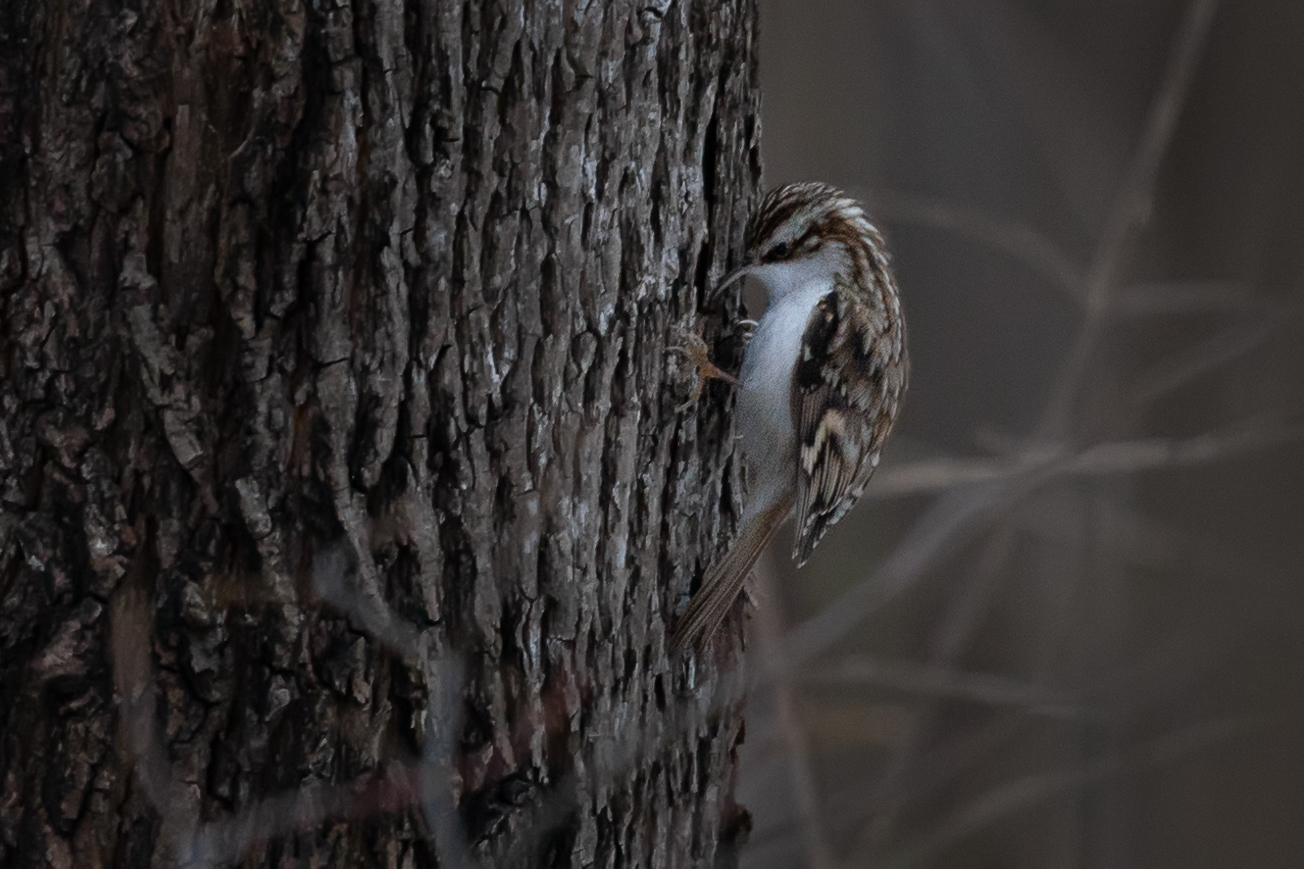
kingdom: Animalia
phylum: Chordata
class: Aves
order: Passeriformes
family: Certhiidae
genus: Certhia
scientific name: Certhia familiaris
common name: Eurasian treecreeper
